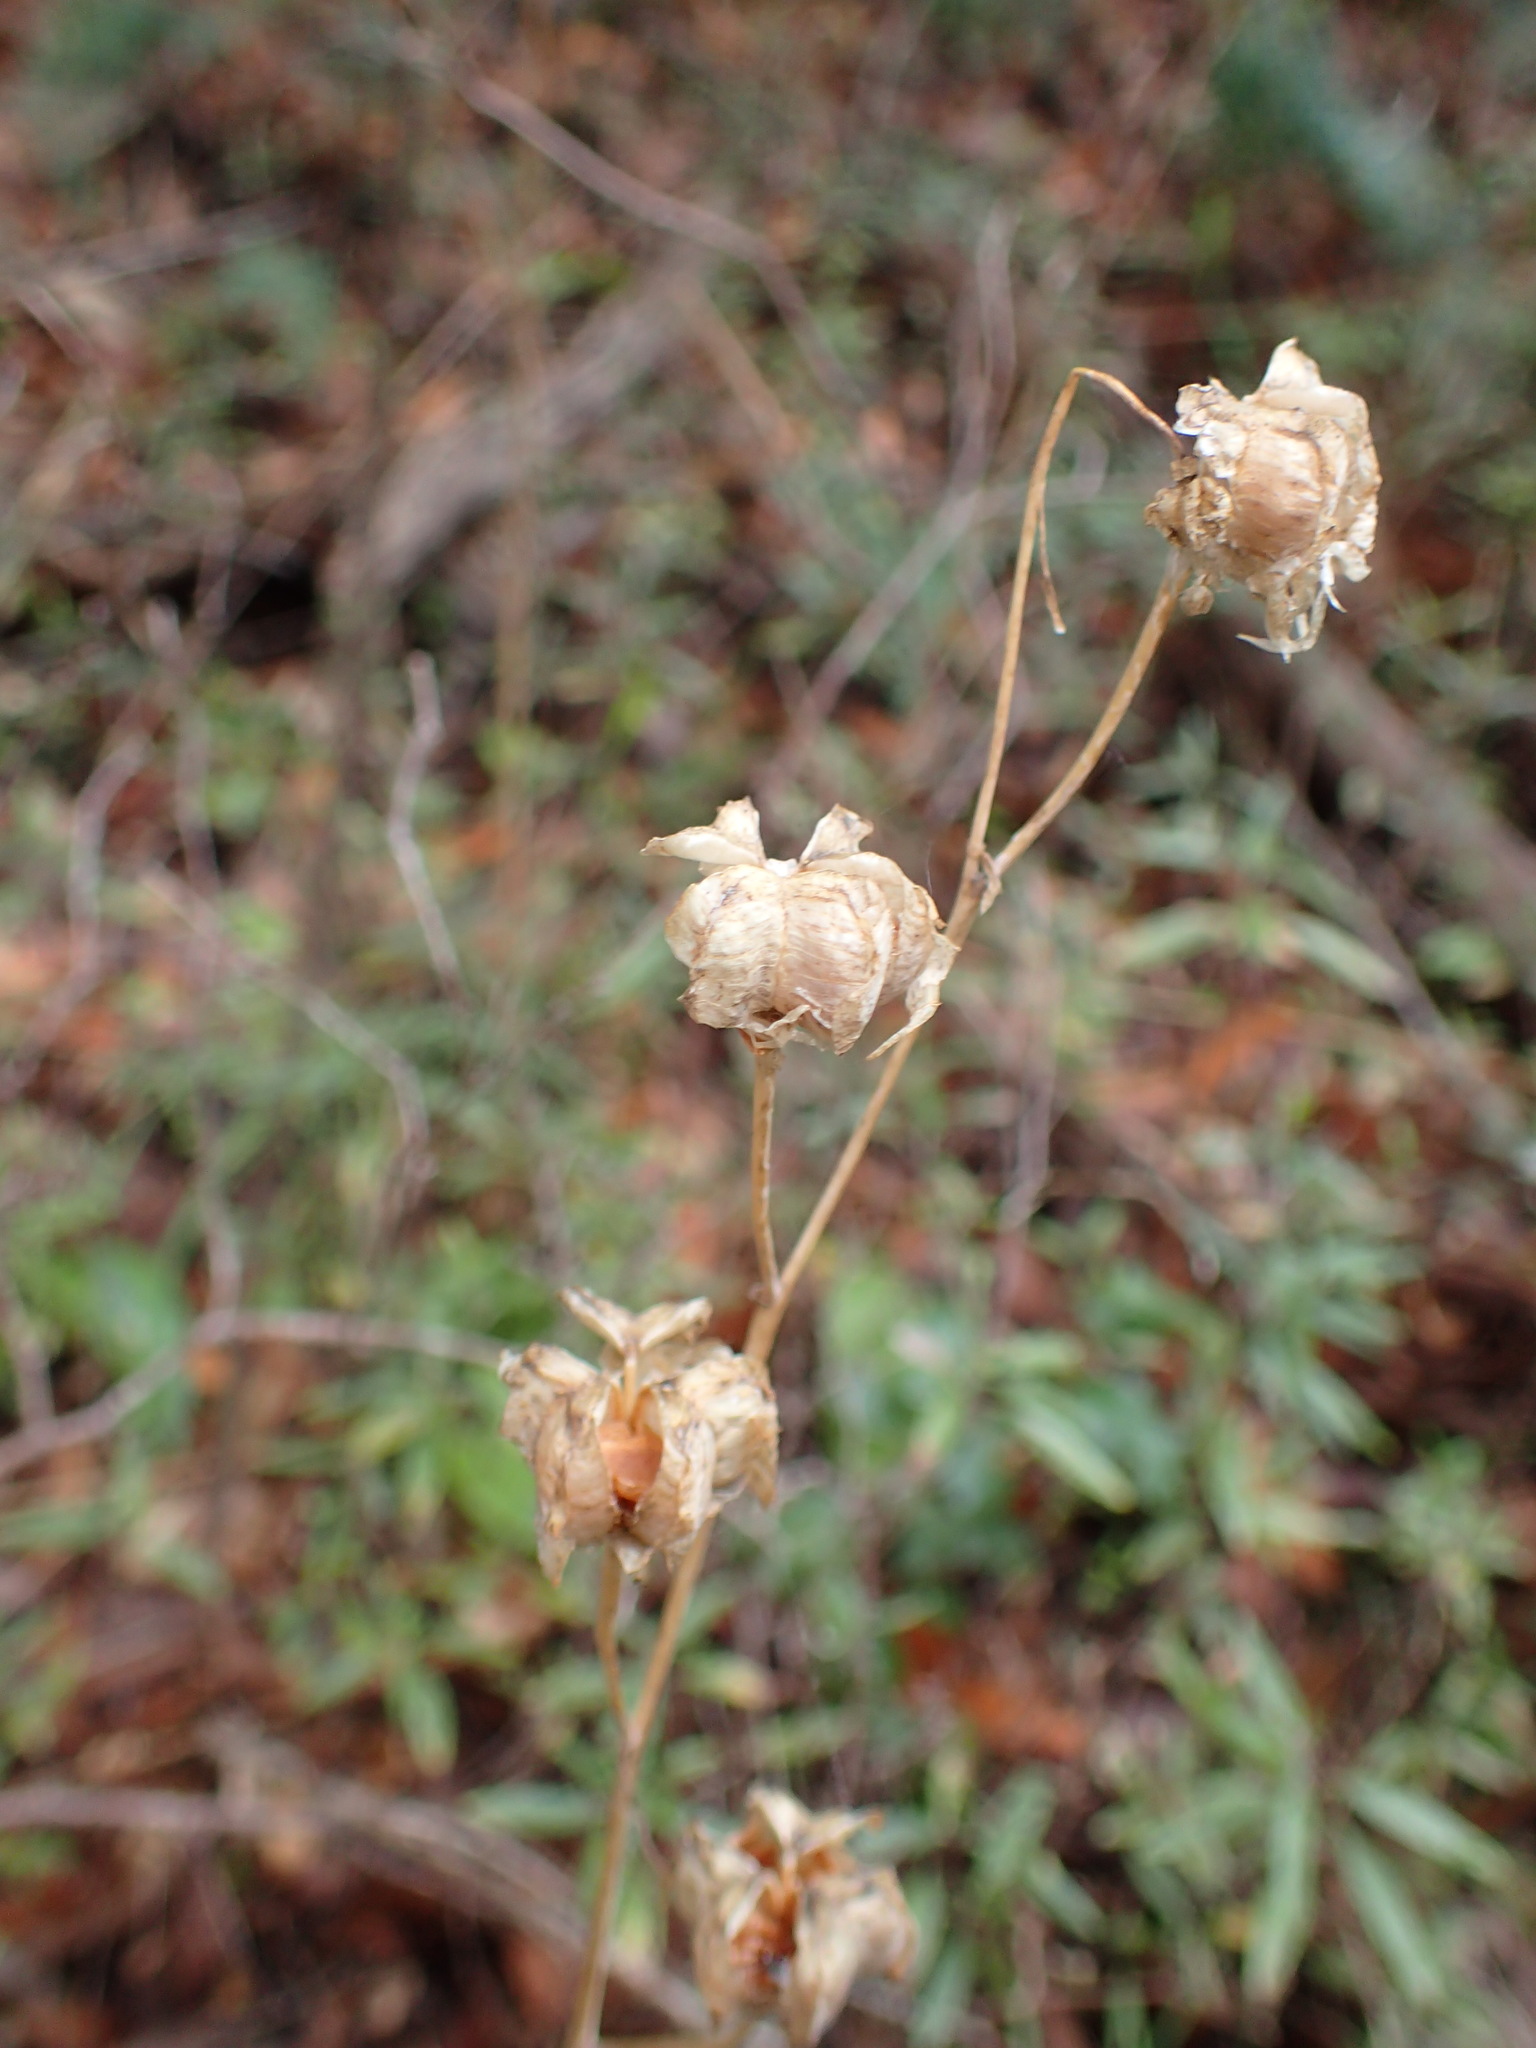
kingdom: Plantae
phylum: Tracheophyta
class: Liliopsida
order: Liliales
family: Liliaceae
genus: Fritillaria
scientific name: Fritillaria ojaiensis
